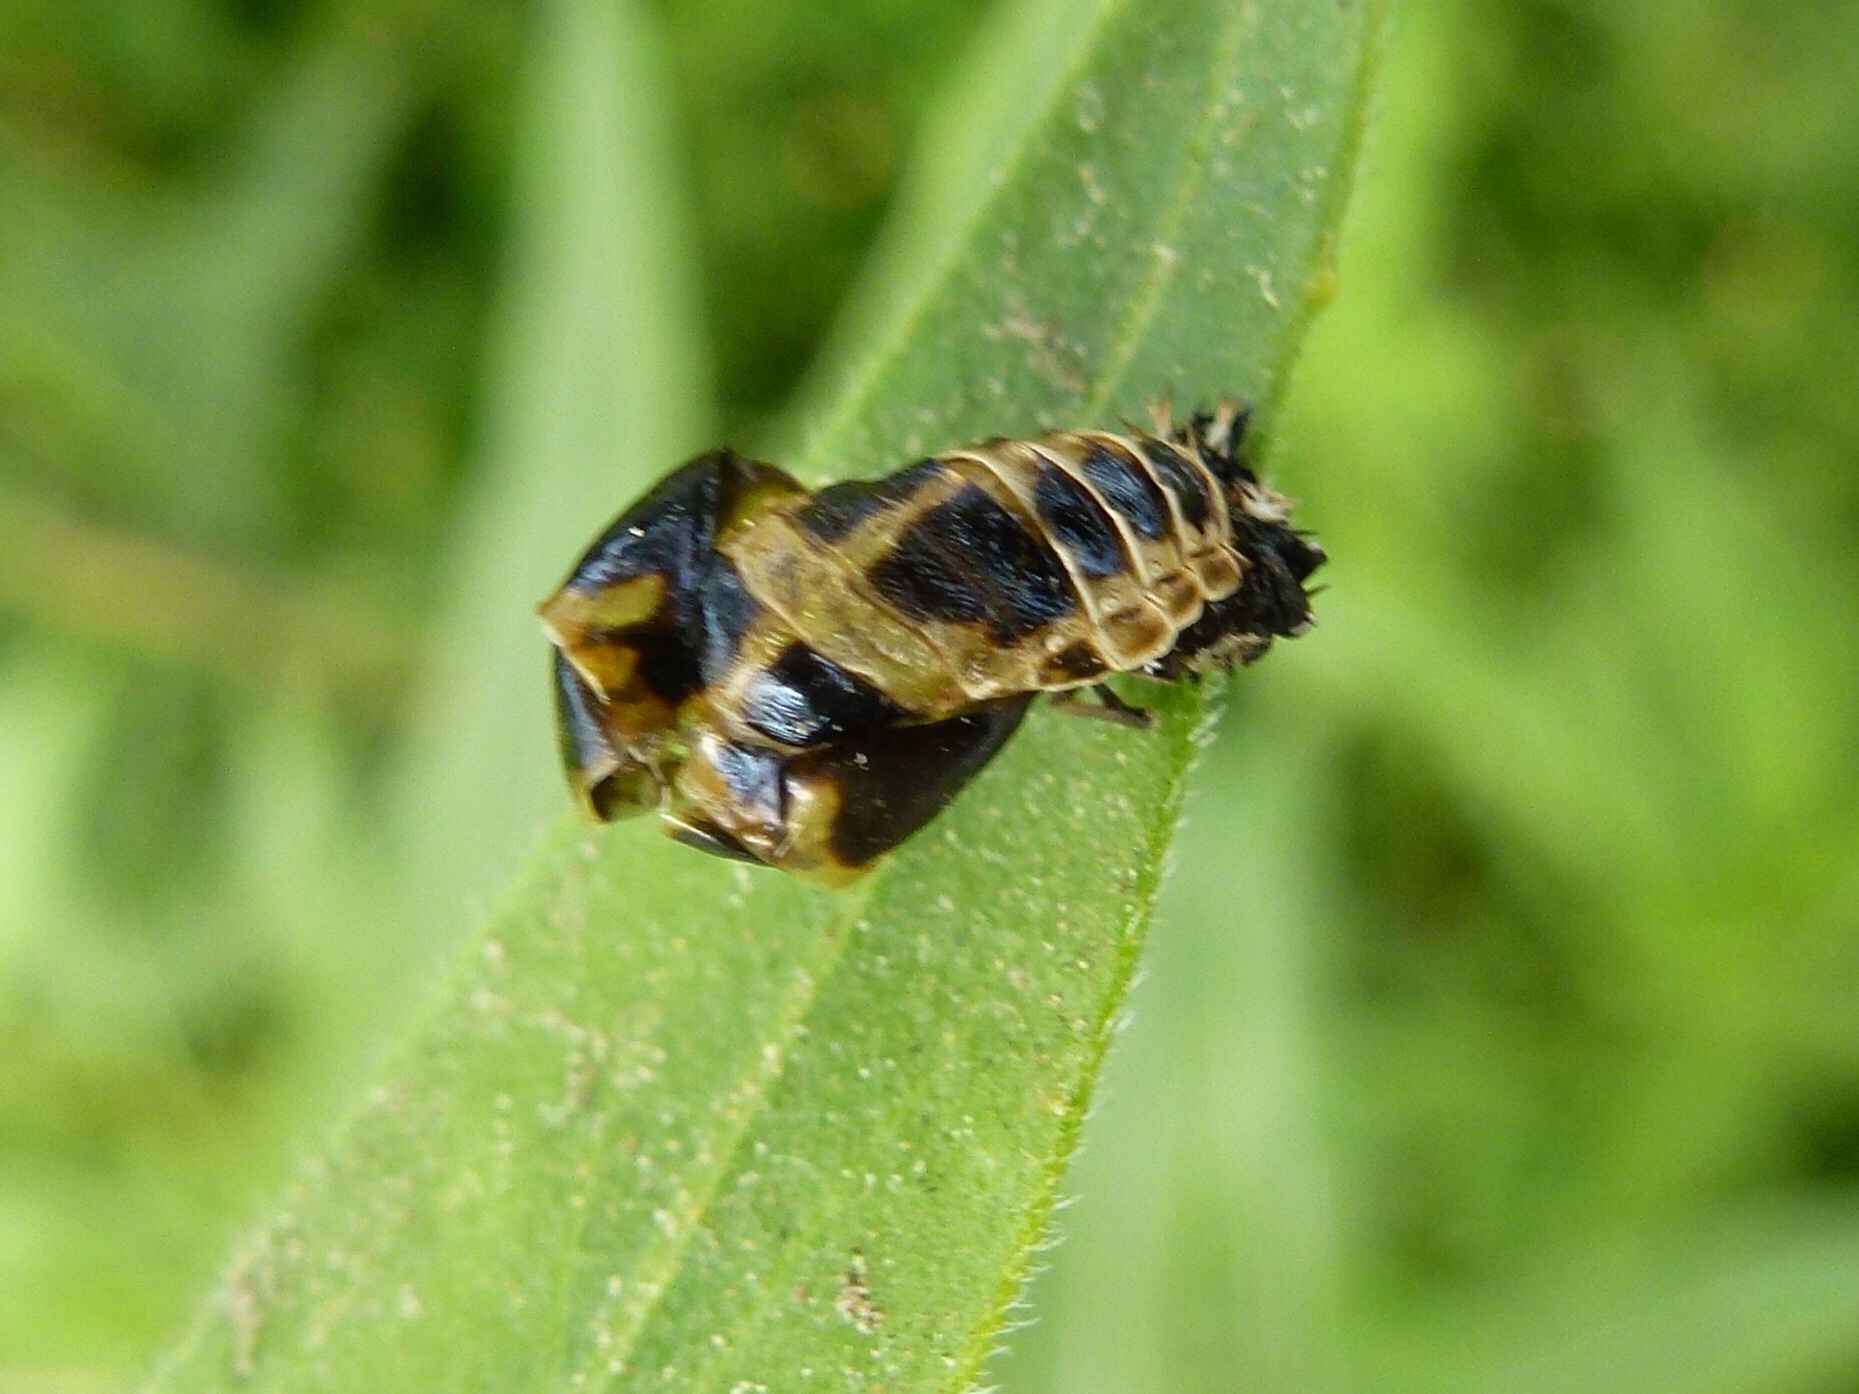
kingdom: Animalia
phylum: Arthropoda
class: Insecta
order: Coleoptera
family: Coccinellidae
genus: Harmonia
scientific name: Harmonia axyridis
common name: Harlequin ladybird
